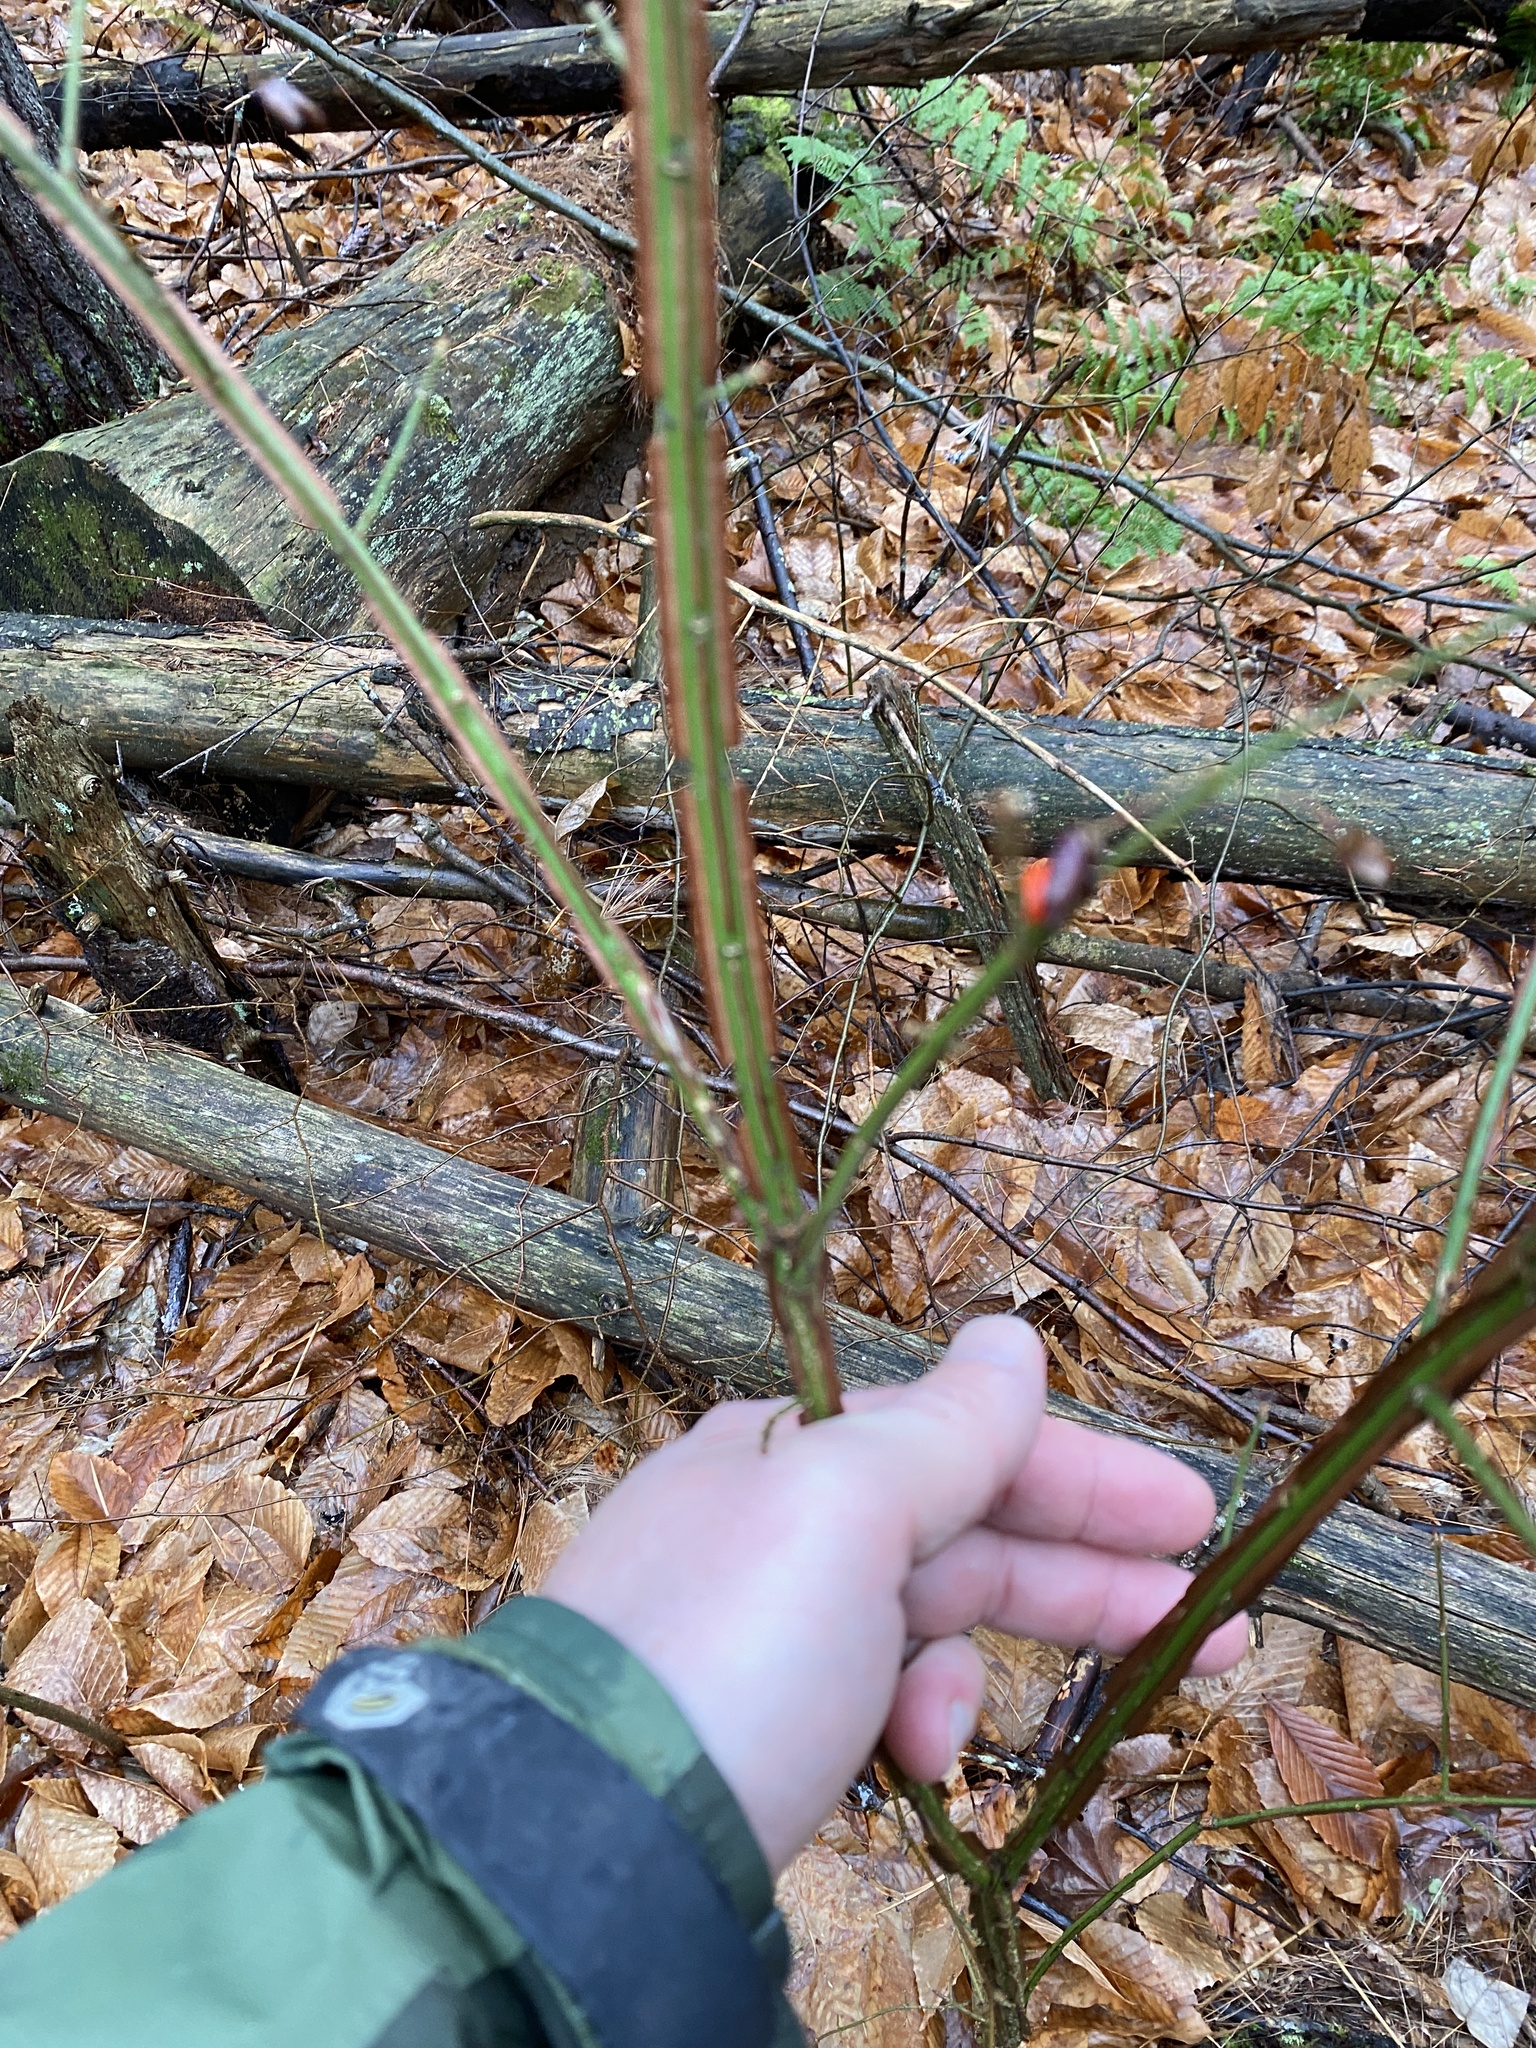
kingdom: Plantae
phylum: Tracheophyta
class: Magnoliopsida
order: Celastrales
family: Celastraceae
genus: Euonymus
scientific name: Euonymus alatus
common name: Winged euonymus
